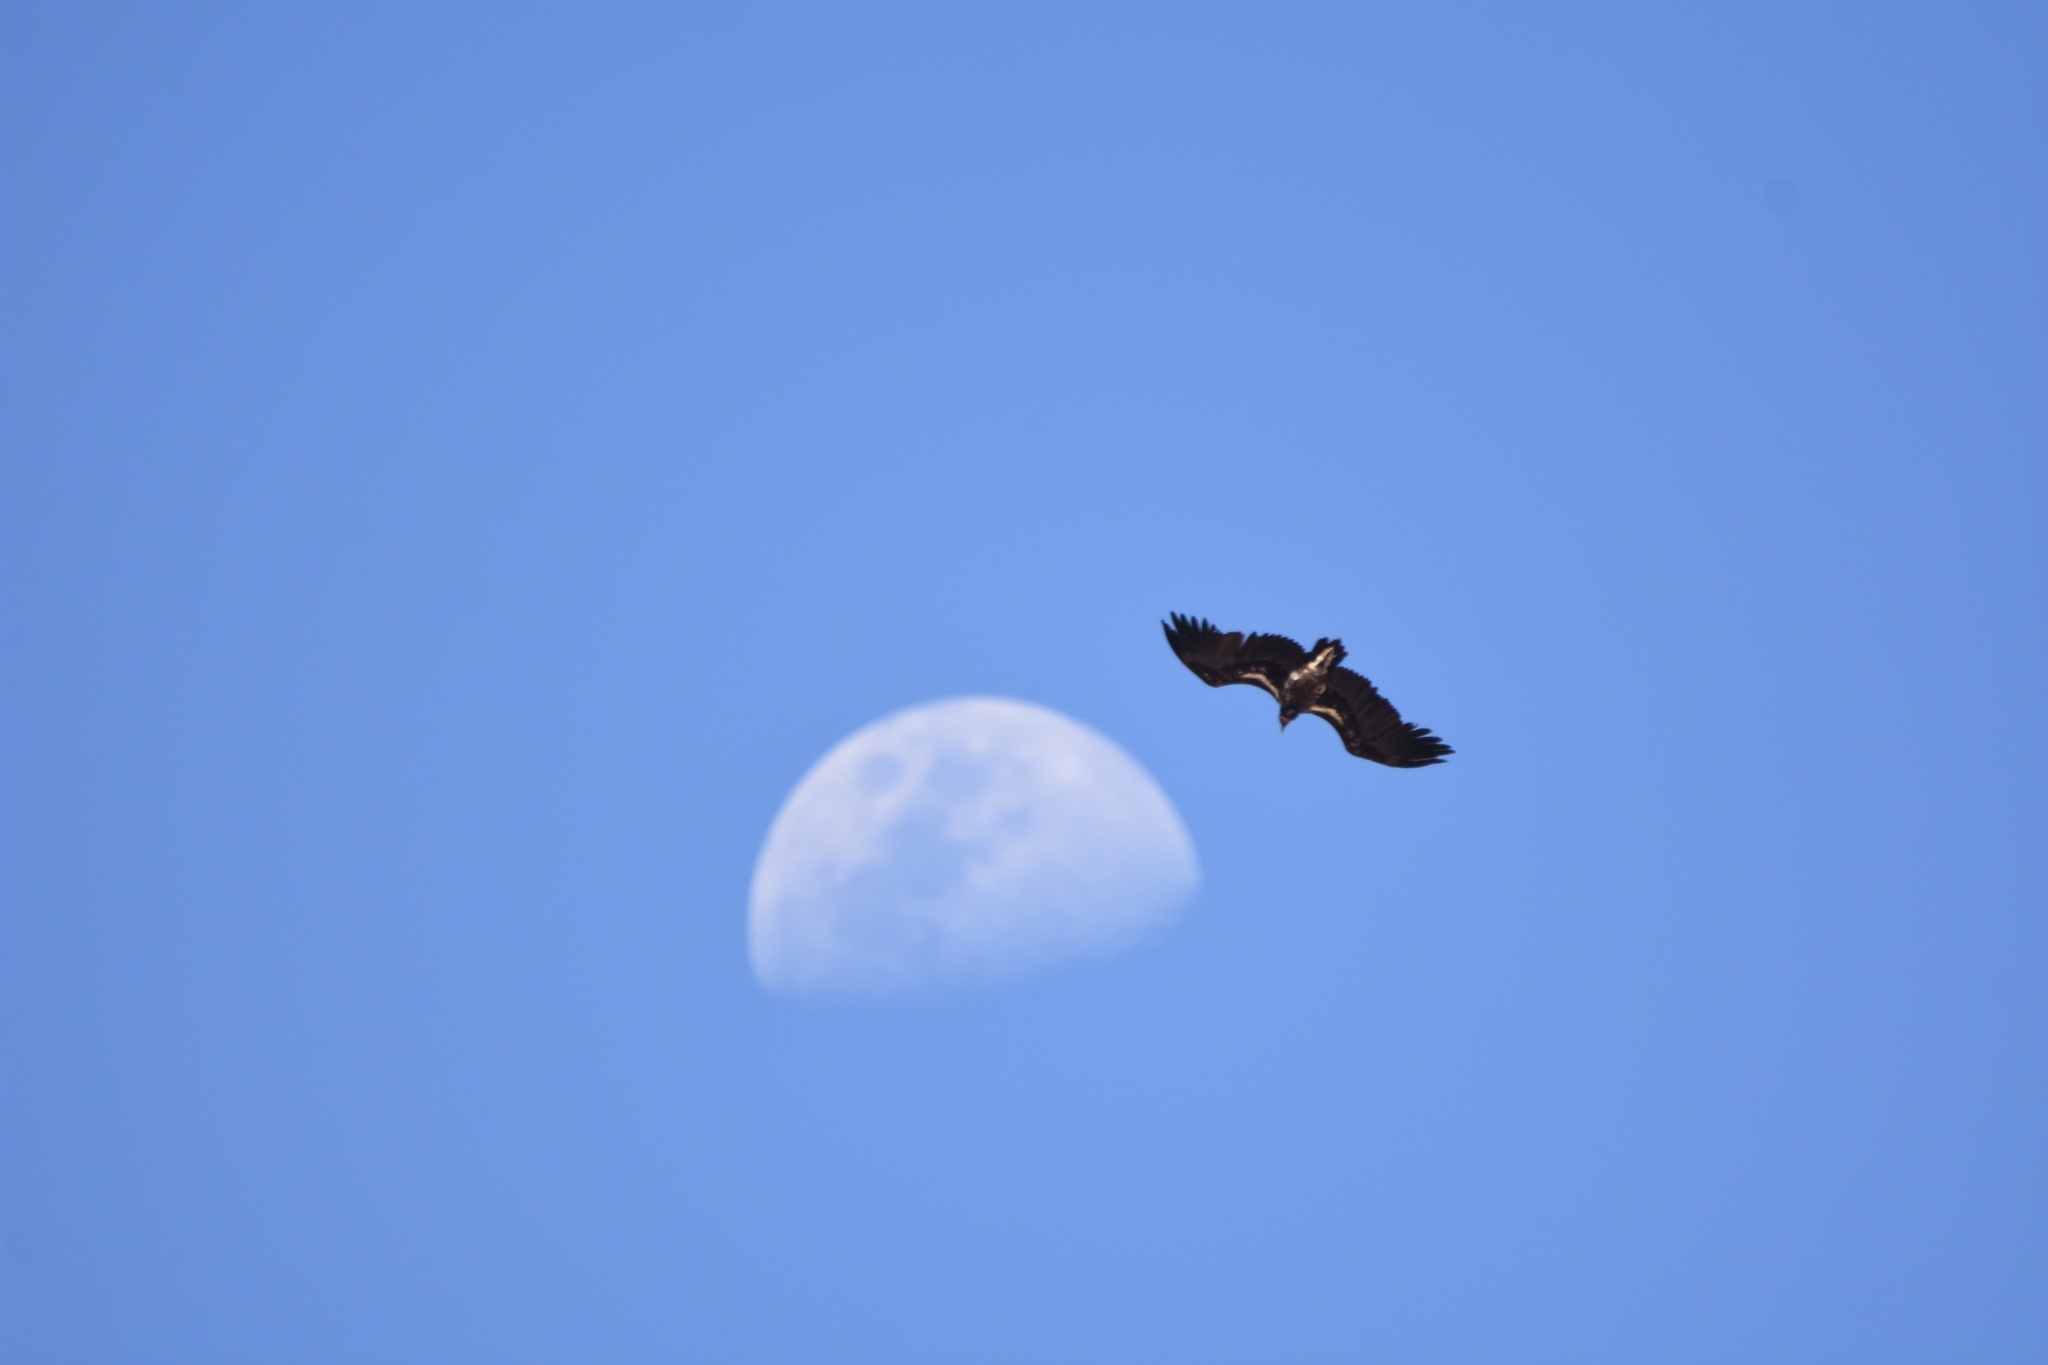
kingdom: Animalia
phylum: Chordata
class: Aves
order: Accipitriformes
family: Accipitridae
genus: Torgos
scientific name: Torgos tracheliotos
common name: Lappet-faced vulture
